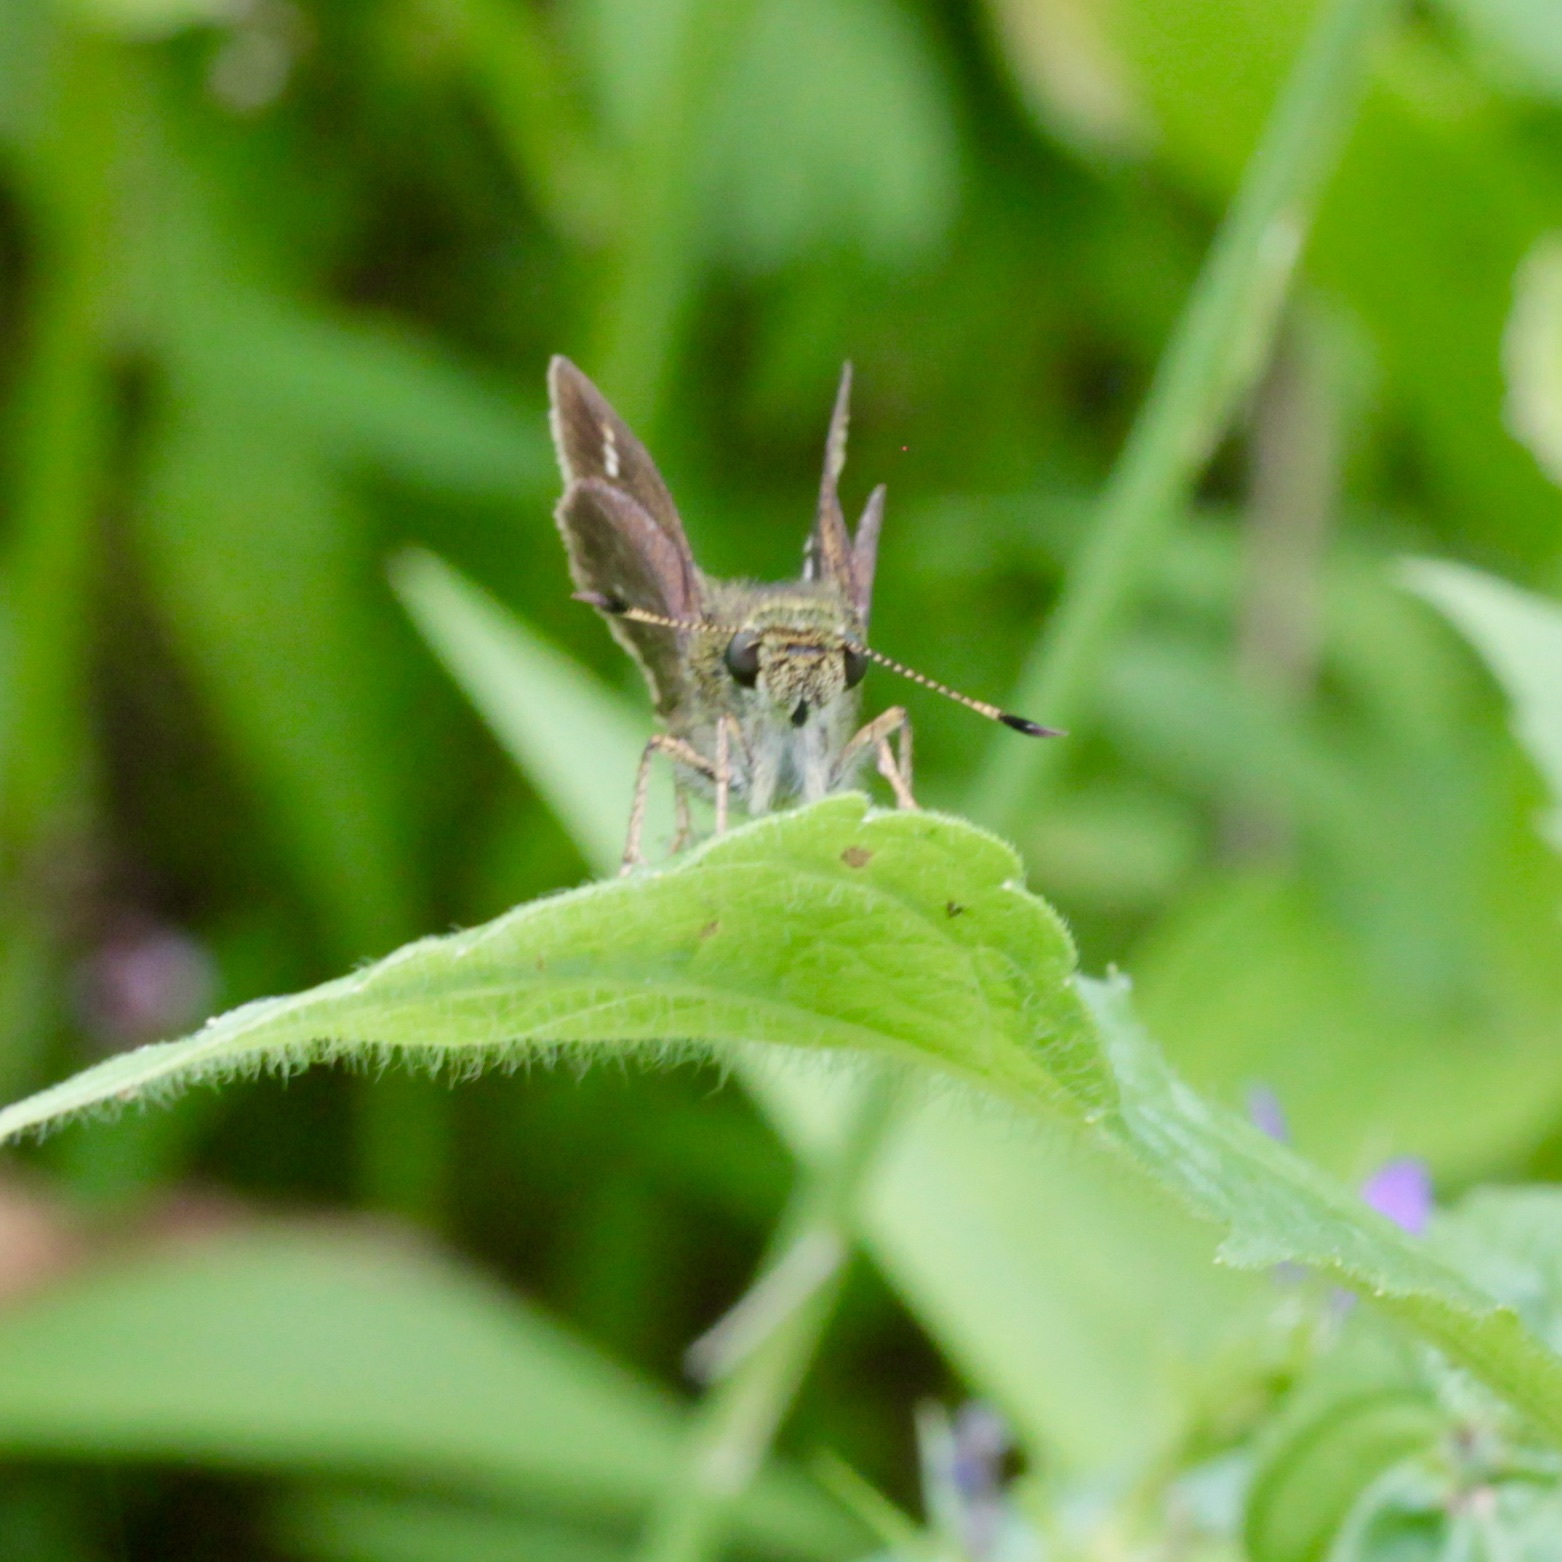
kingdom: Animalia
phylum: Arthropoda
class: Insecta
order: Lepidoptera
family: Hesperiidae
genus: Vernia
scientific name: Vernia verna
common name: Little glassywing
